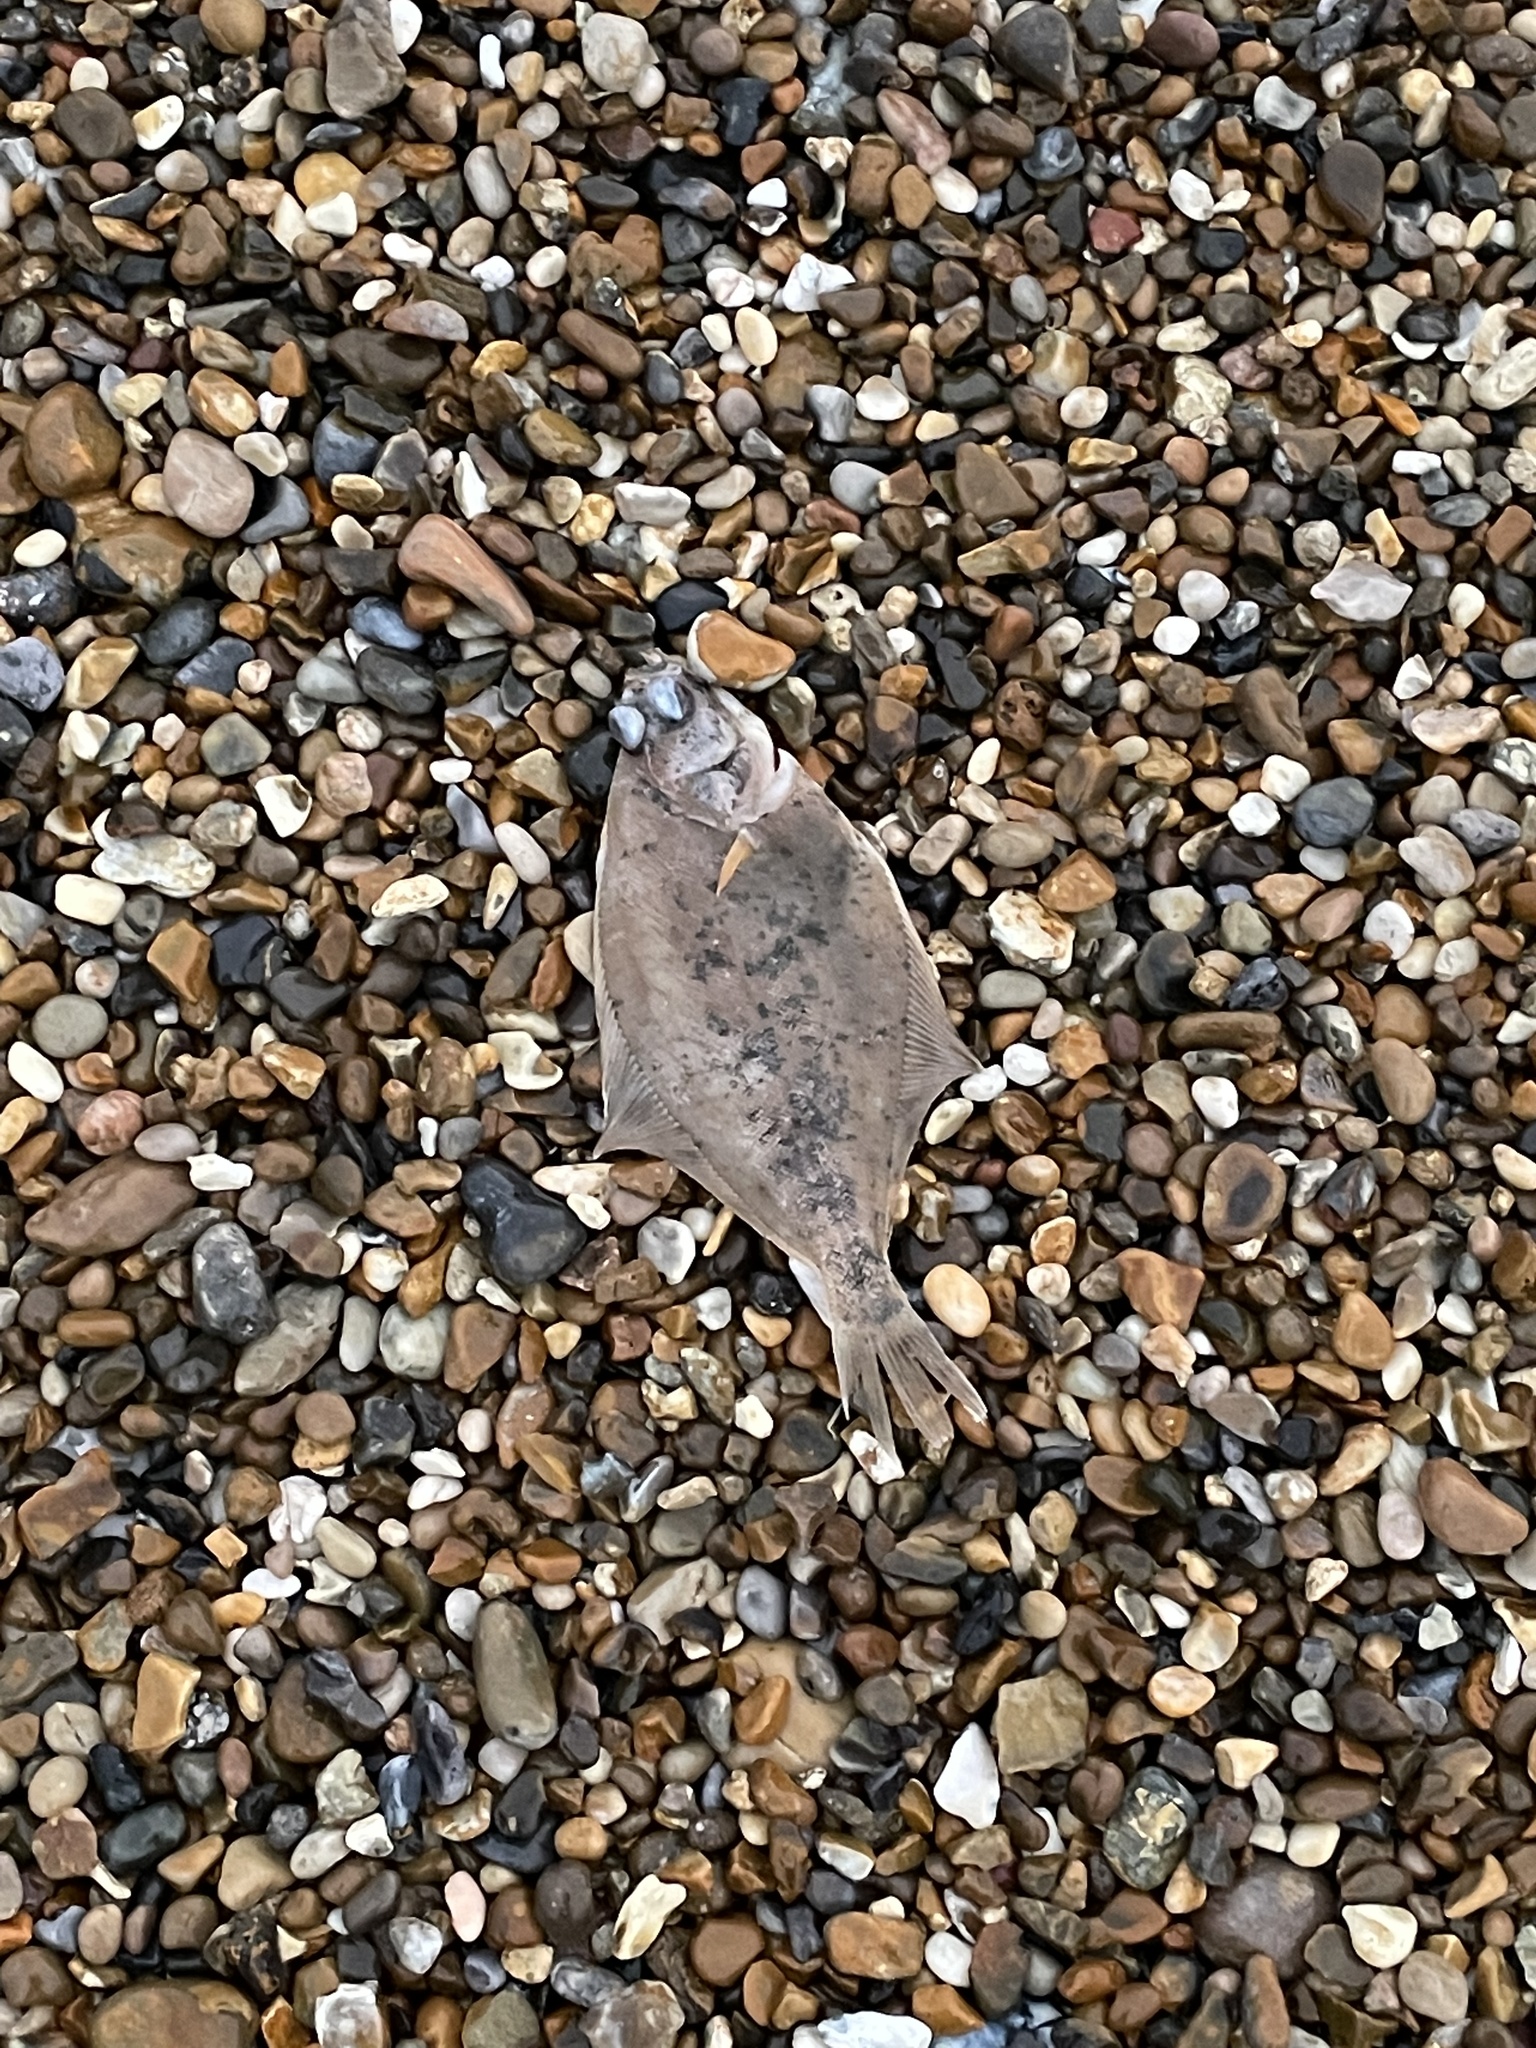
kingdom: Animalia
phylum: Chordata
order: Pleuronectiformes
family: Pleuronectidae
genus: Limanda
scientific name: Limanda limanda
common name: Dab
